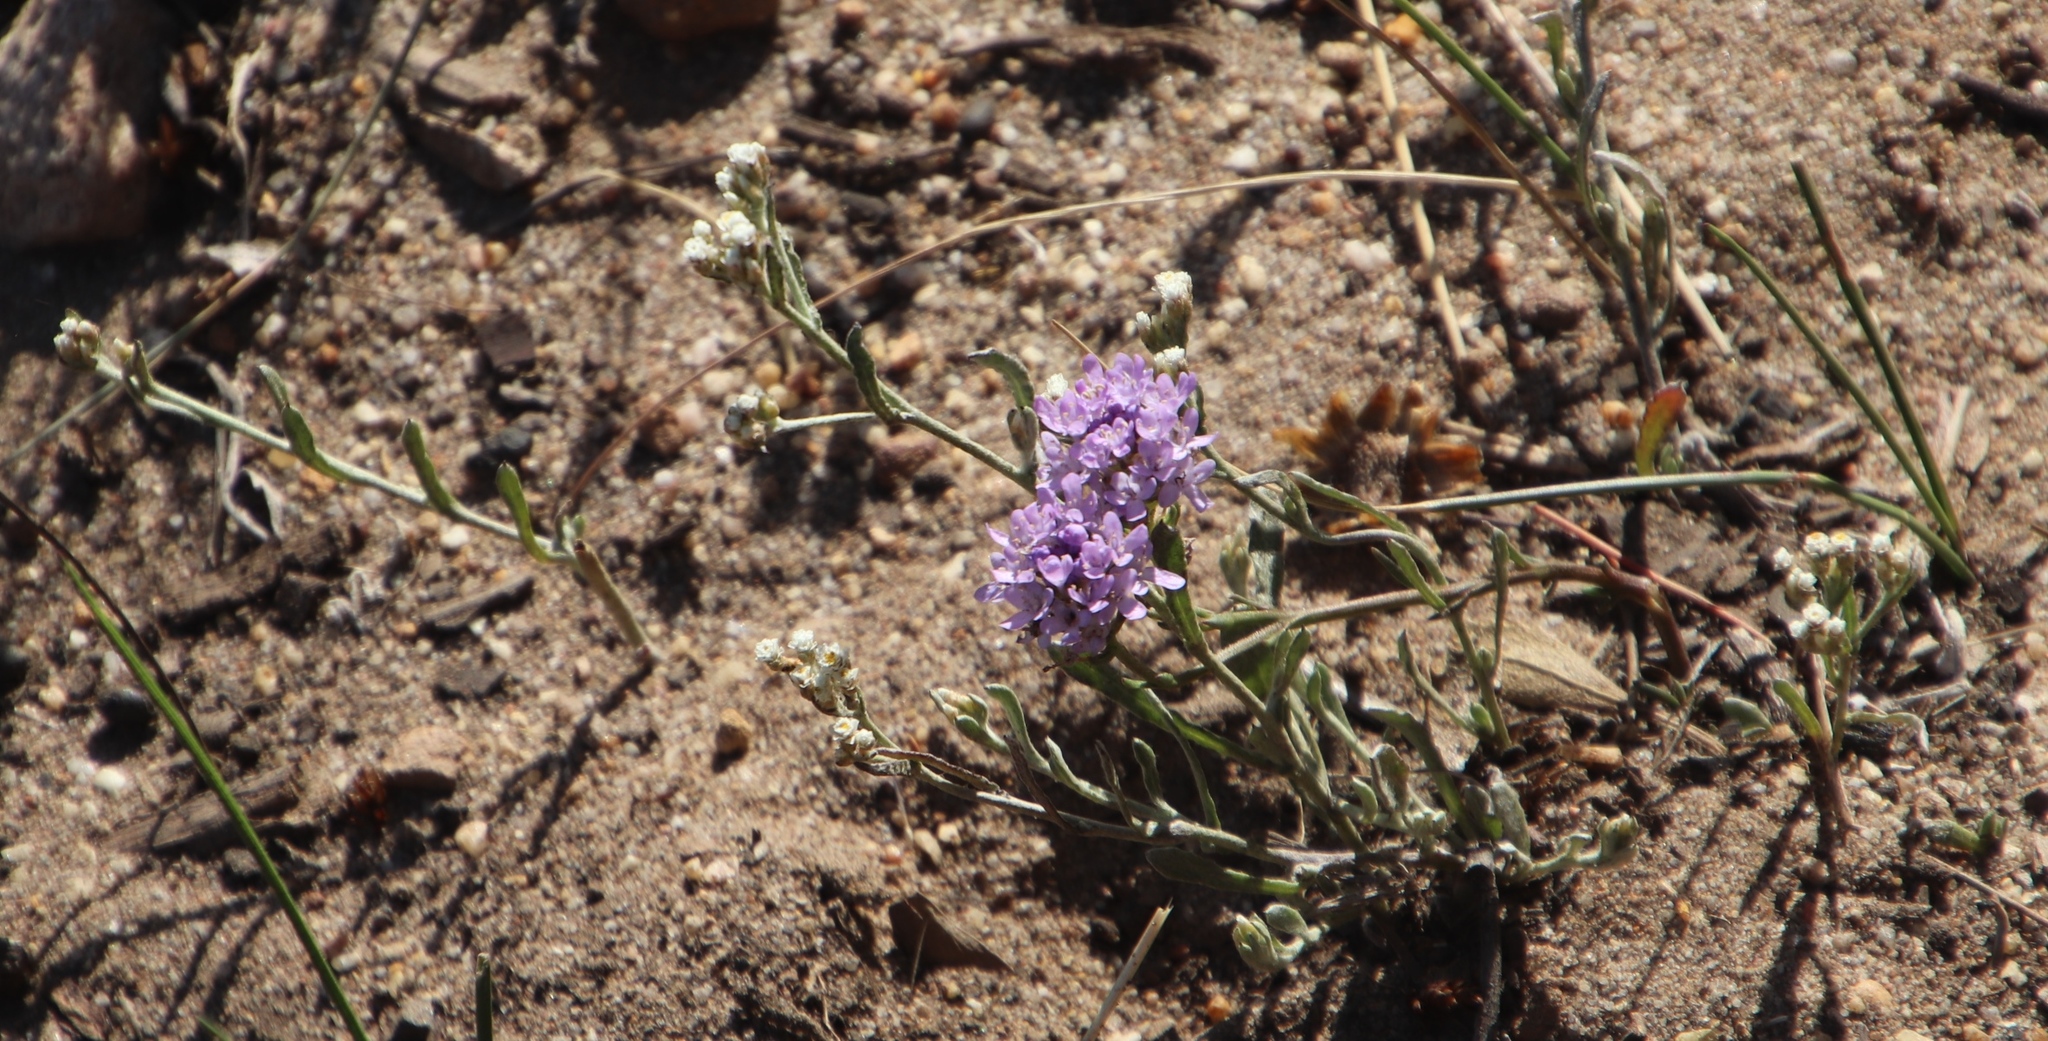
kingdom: Plantae
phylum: Tracheophyta
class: Magnoliopsida
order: Asterales
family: Asteraceae
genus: Helichrysum
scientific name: Helichrysum indicum
